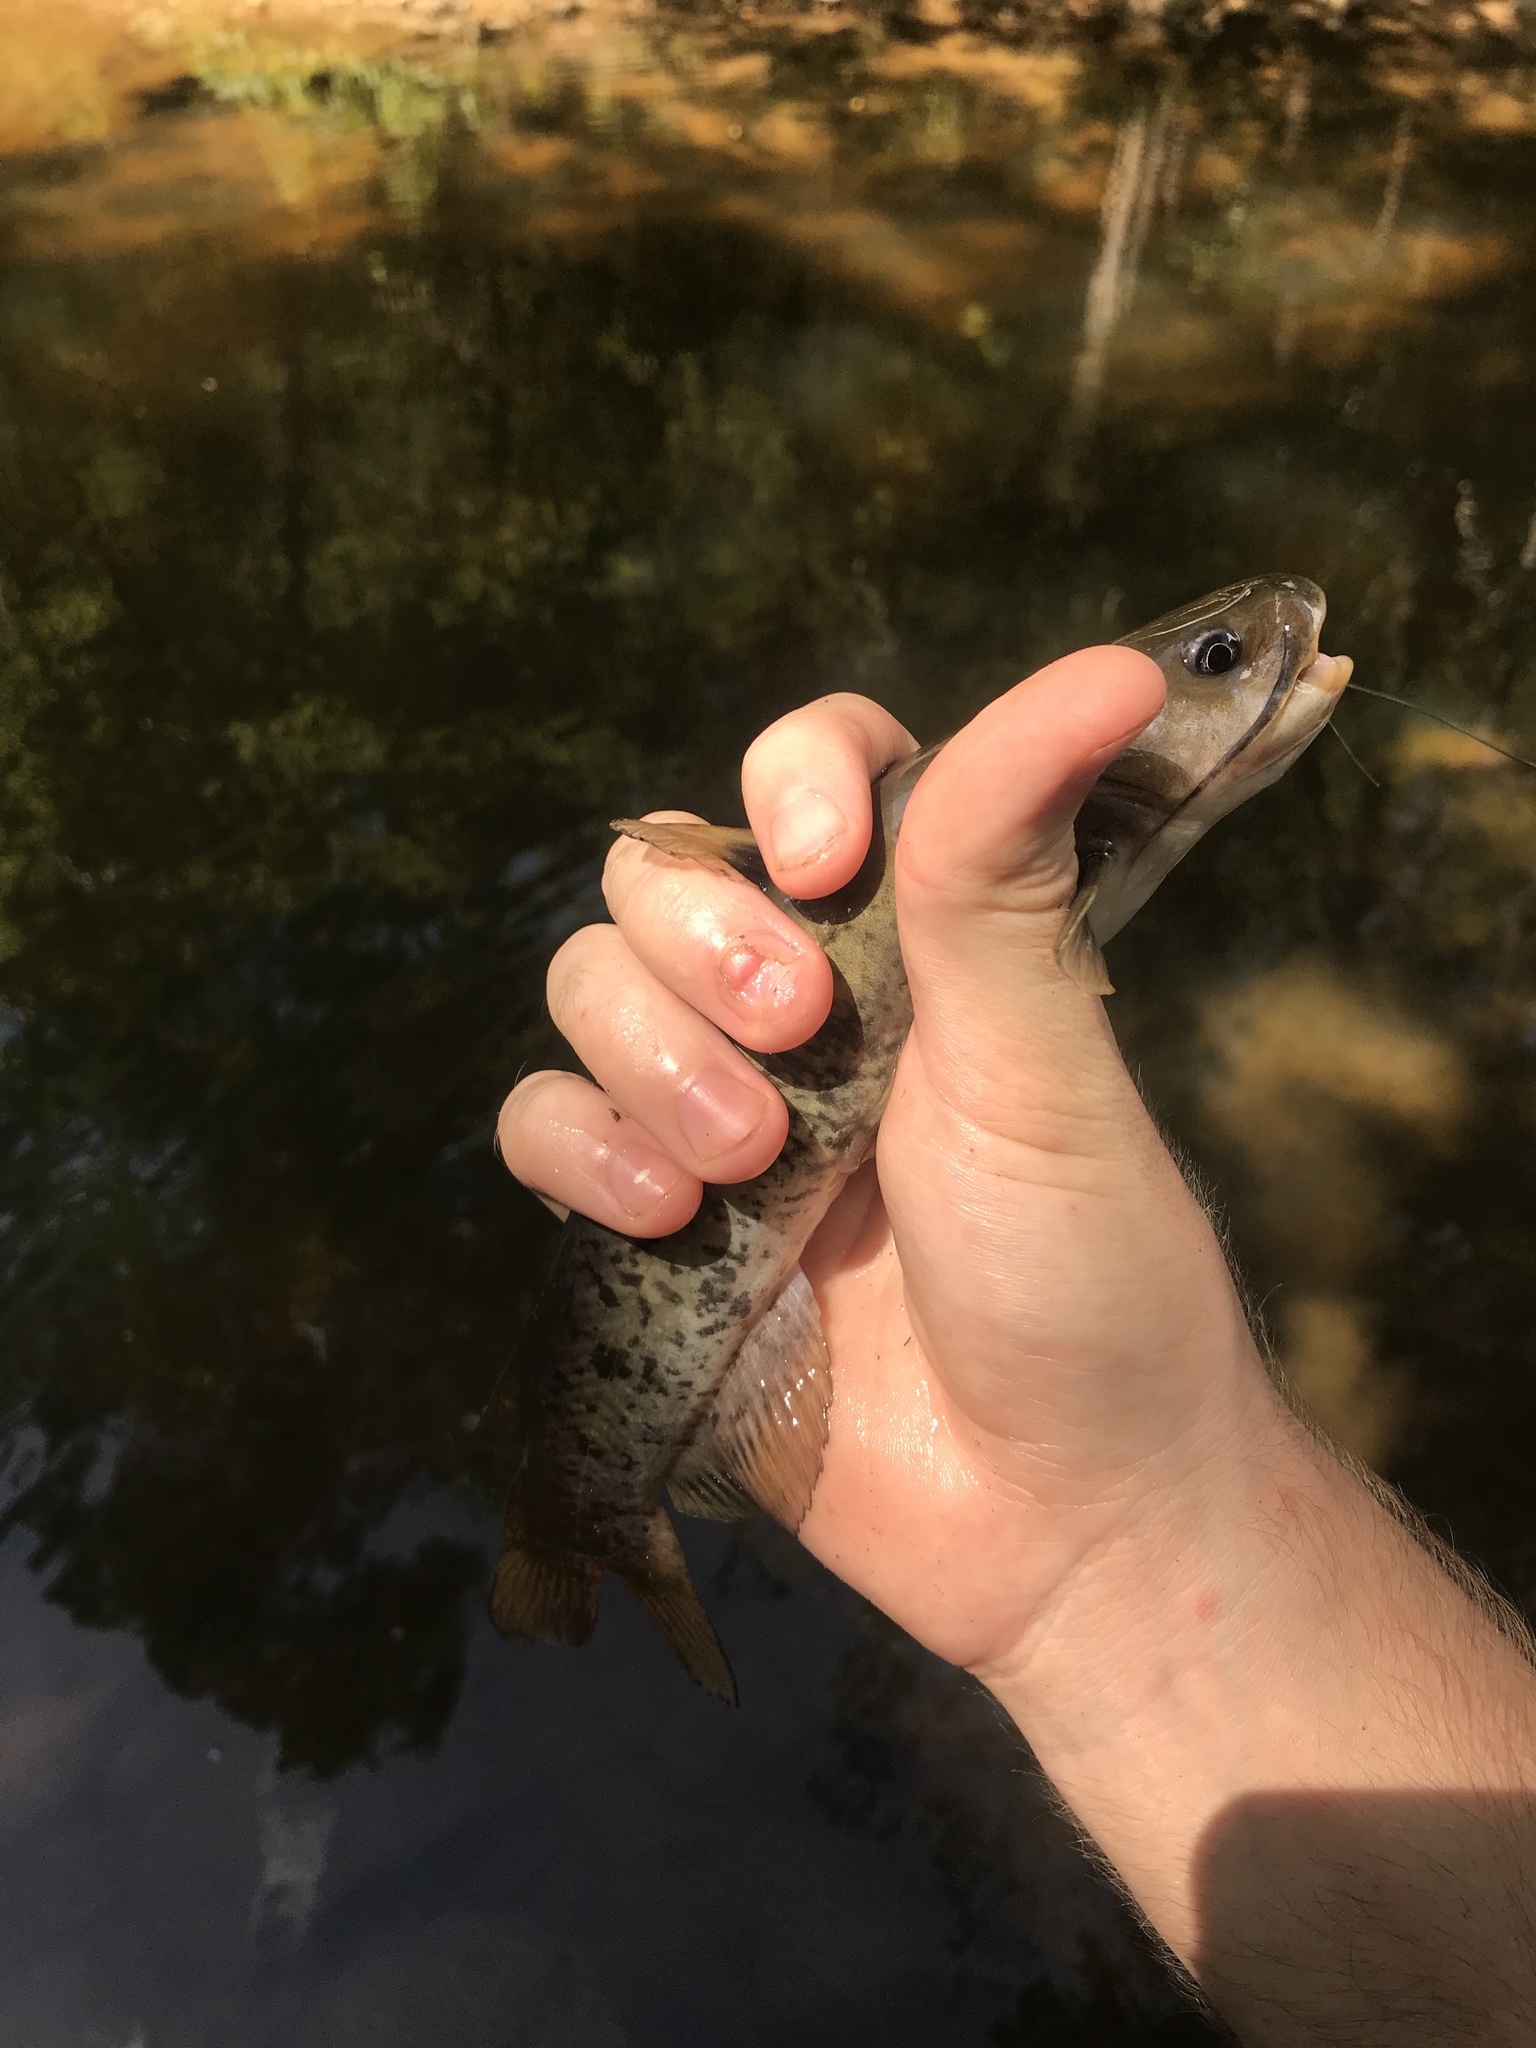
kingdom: Animalia
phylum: Chordata
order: Siluriformes
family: Ictaluridae
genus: Ameiurus
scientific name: Ameiurus brunneus
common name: Snail bullhead
